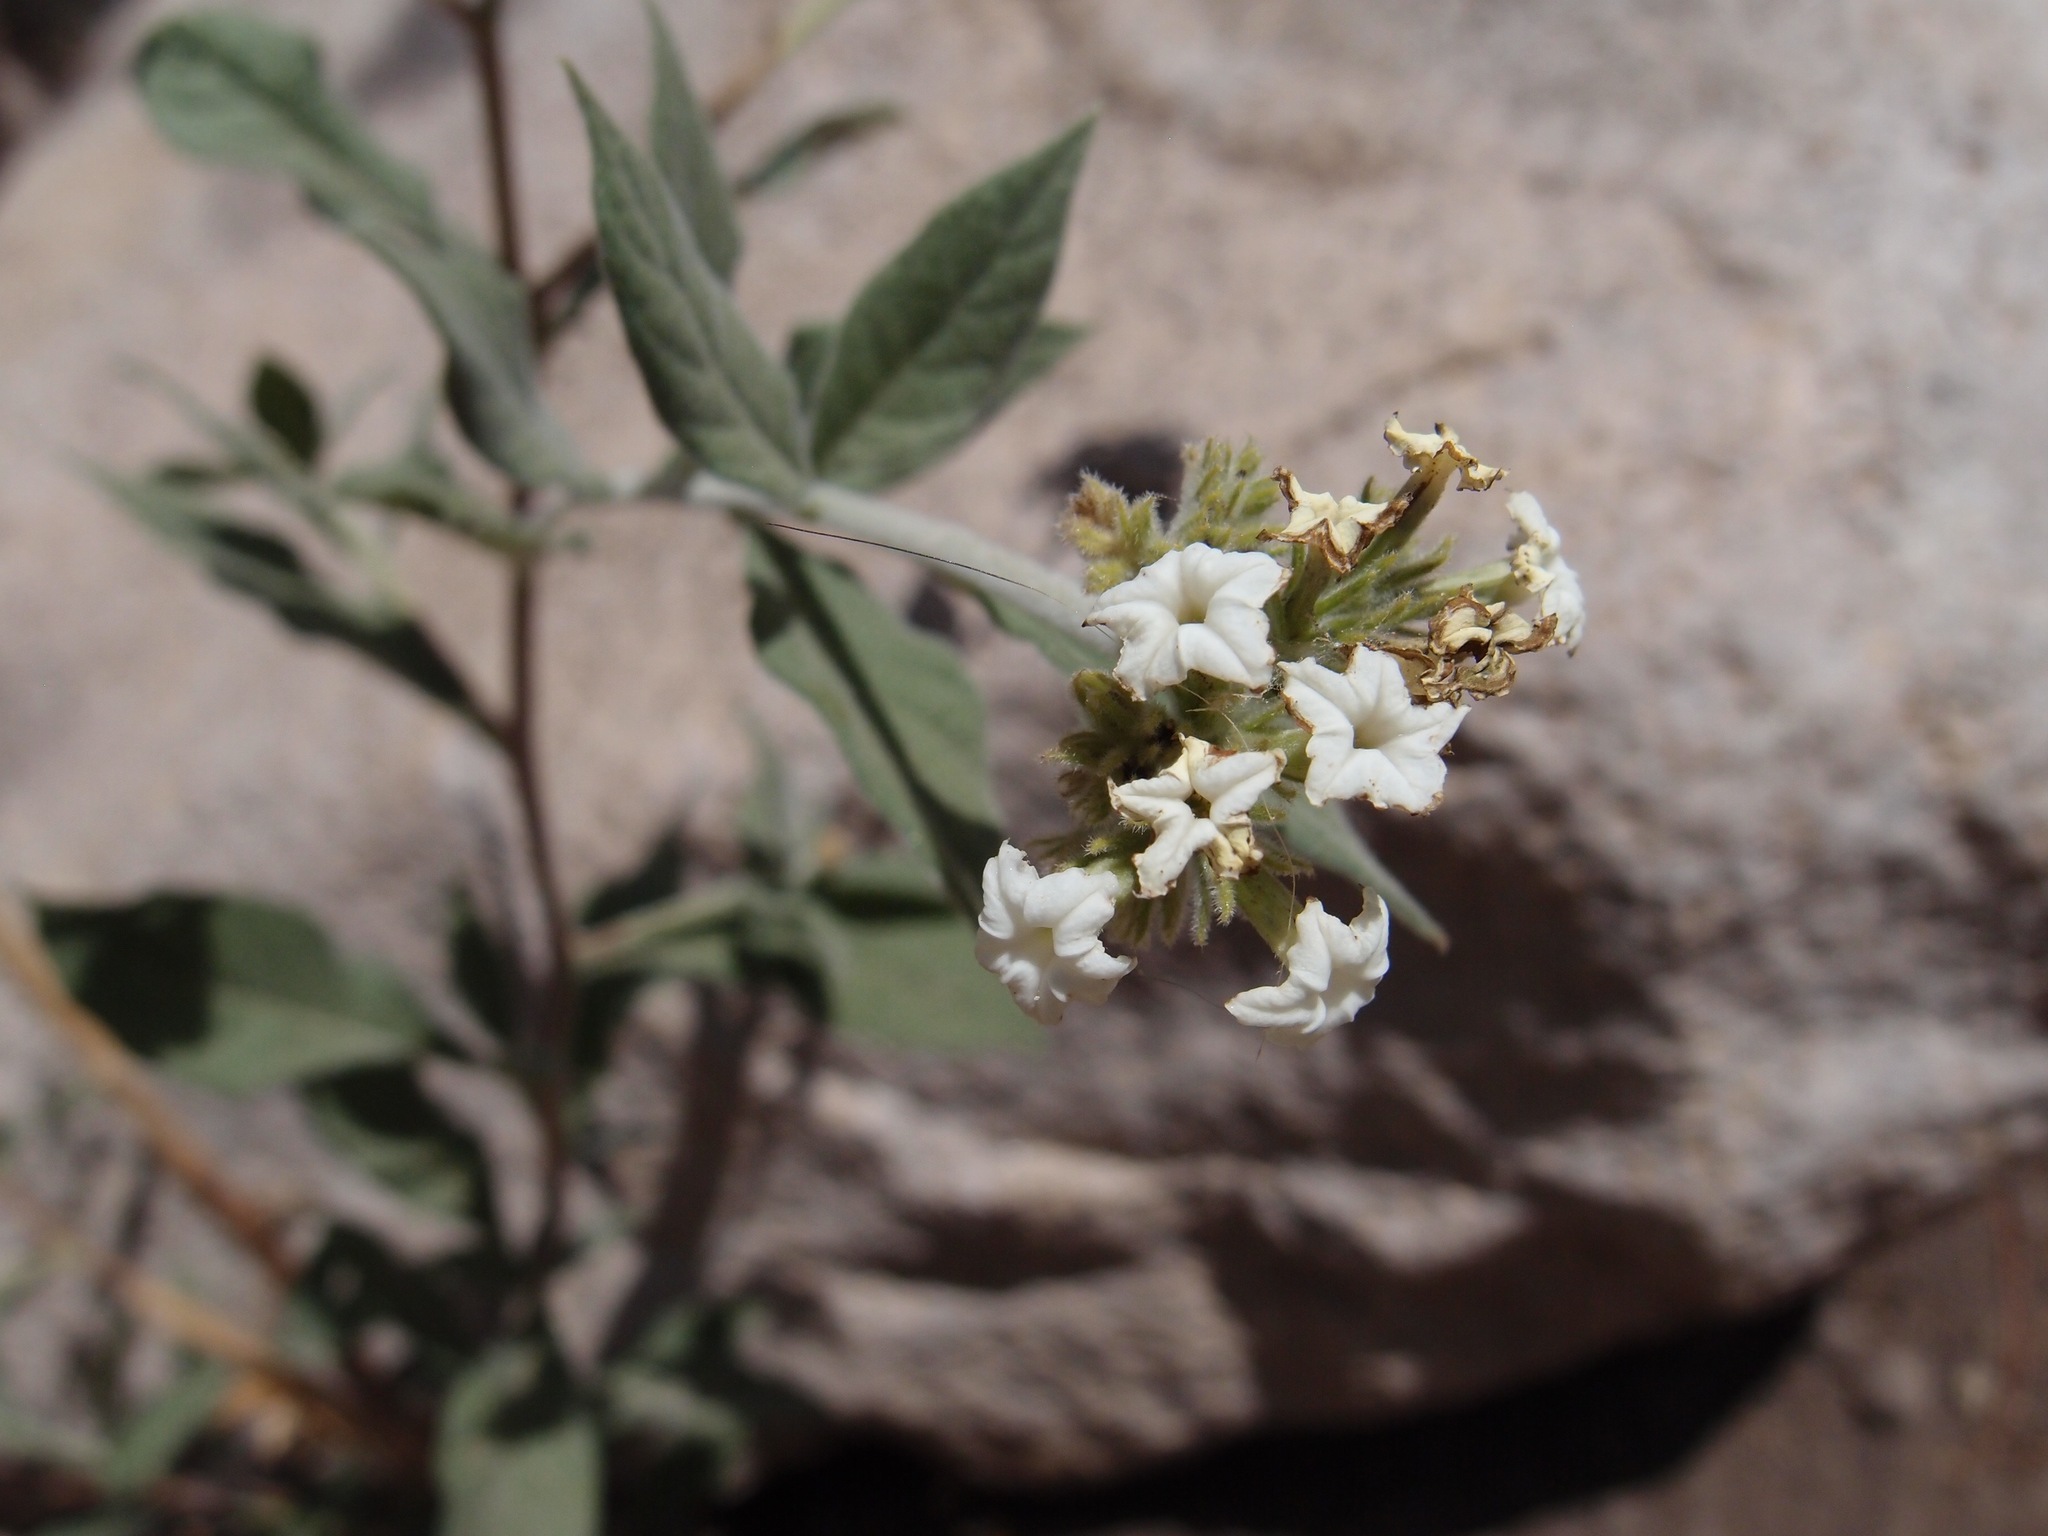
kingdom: Plantae
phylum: Tracheophyta
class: Magnoliopsida
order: Boraginales
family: Heliotropiaceae
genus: Tournefortia
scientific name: Tournefortia mutabilis
